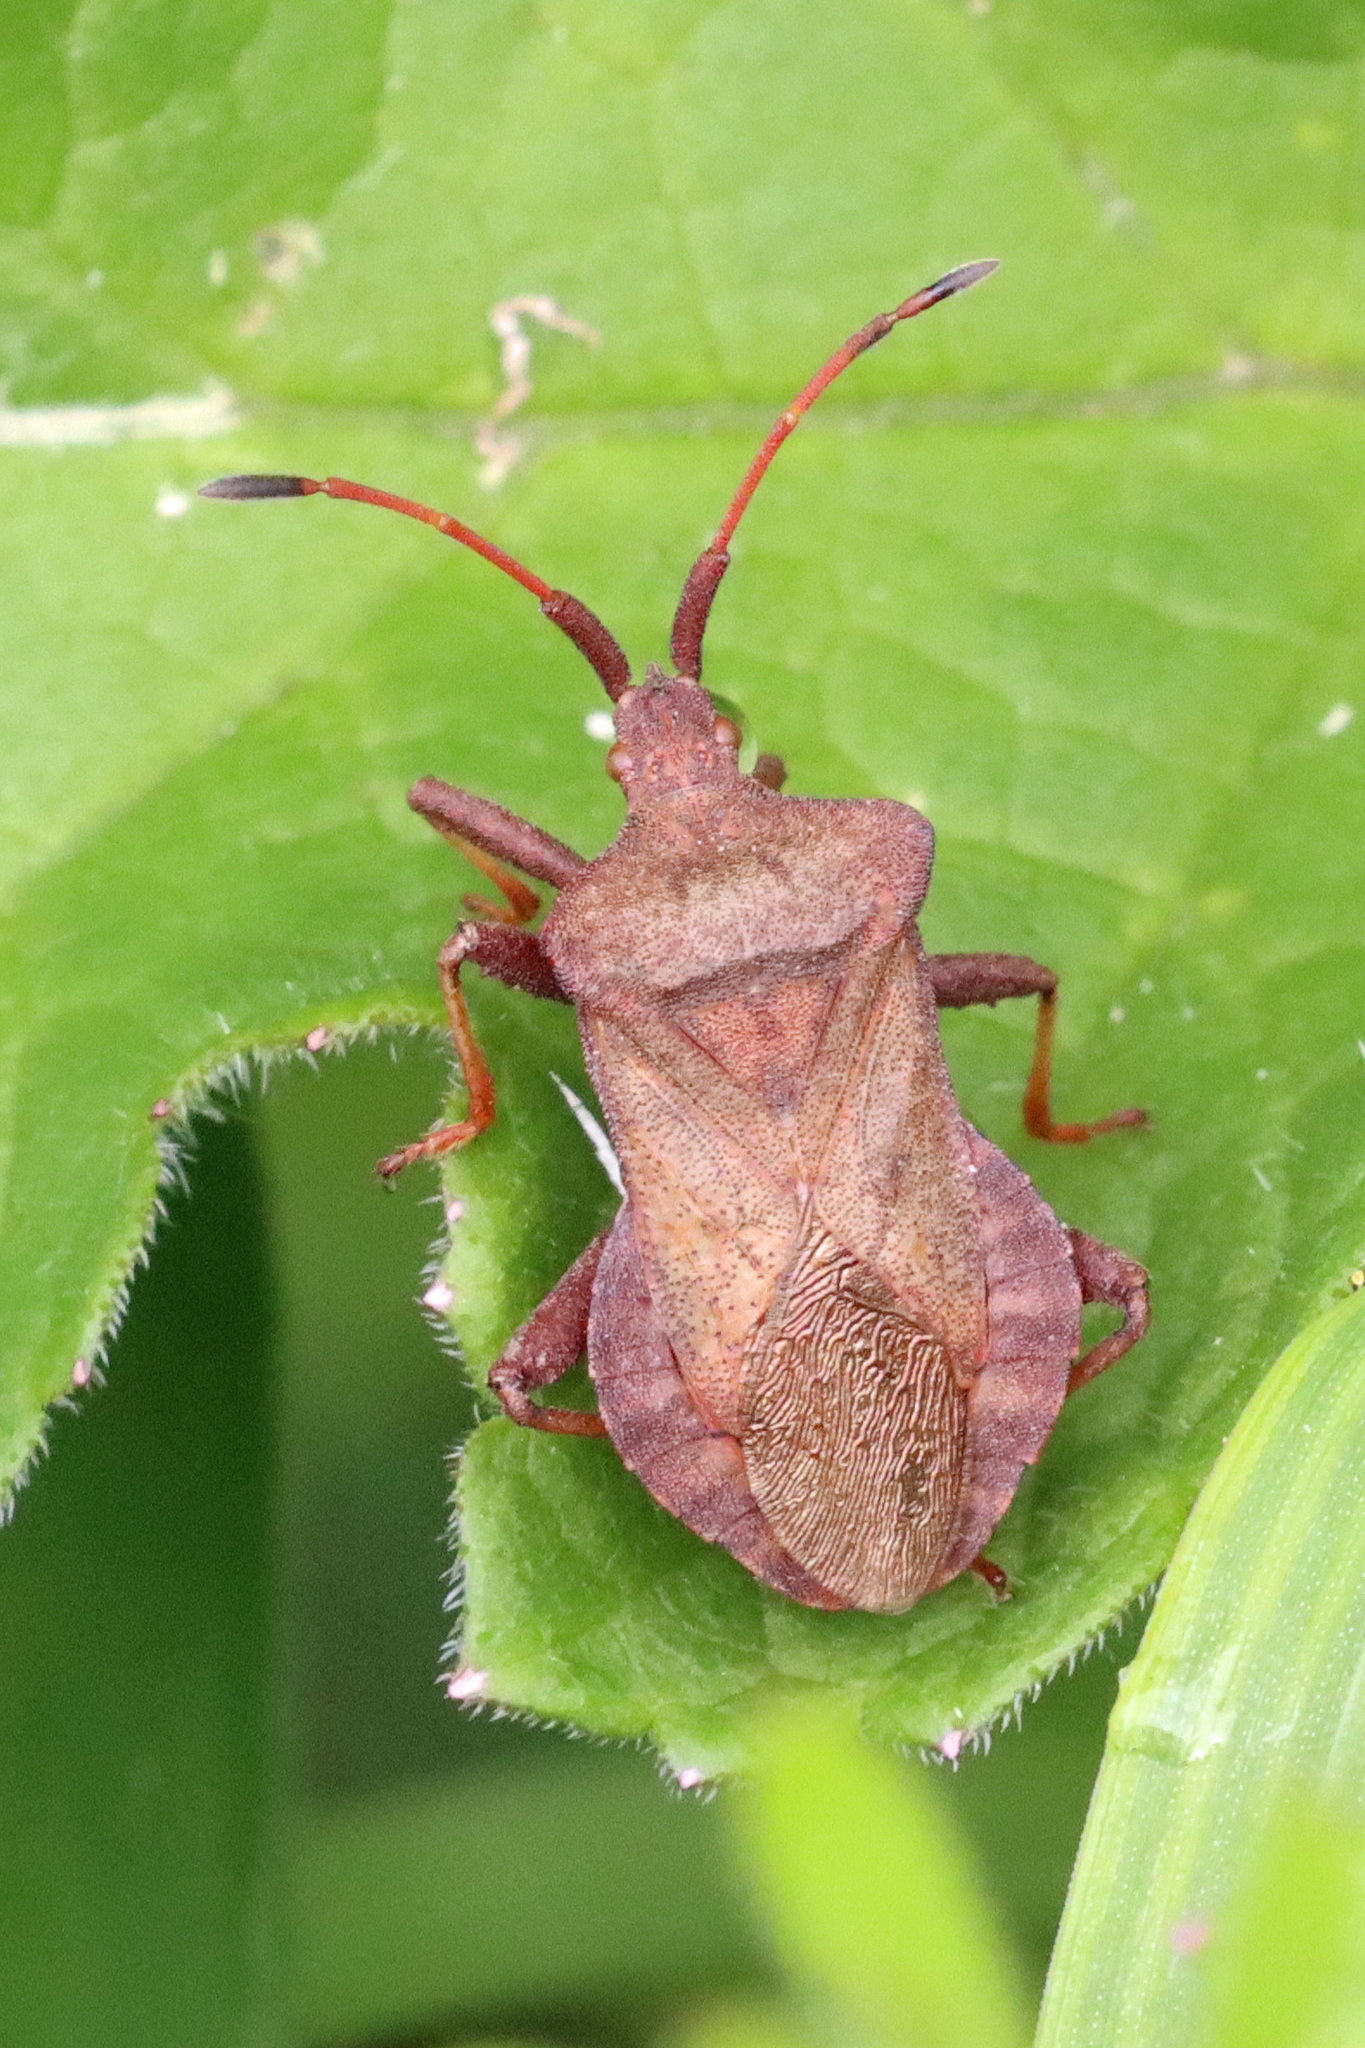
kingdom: Animalia
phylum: Arthropoda
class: Insecta
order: Hemiptera
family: Coreidae
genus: Coreus
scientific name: Coreus marginatus
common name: Dock bug
